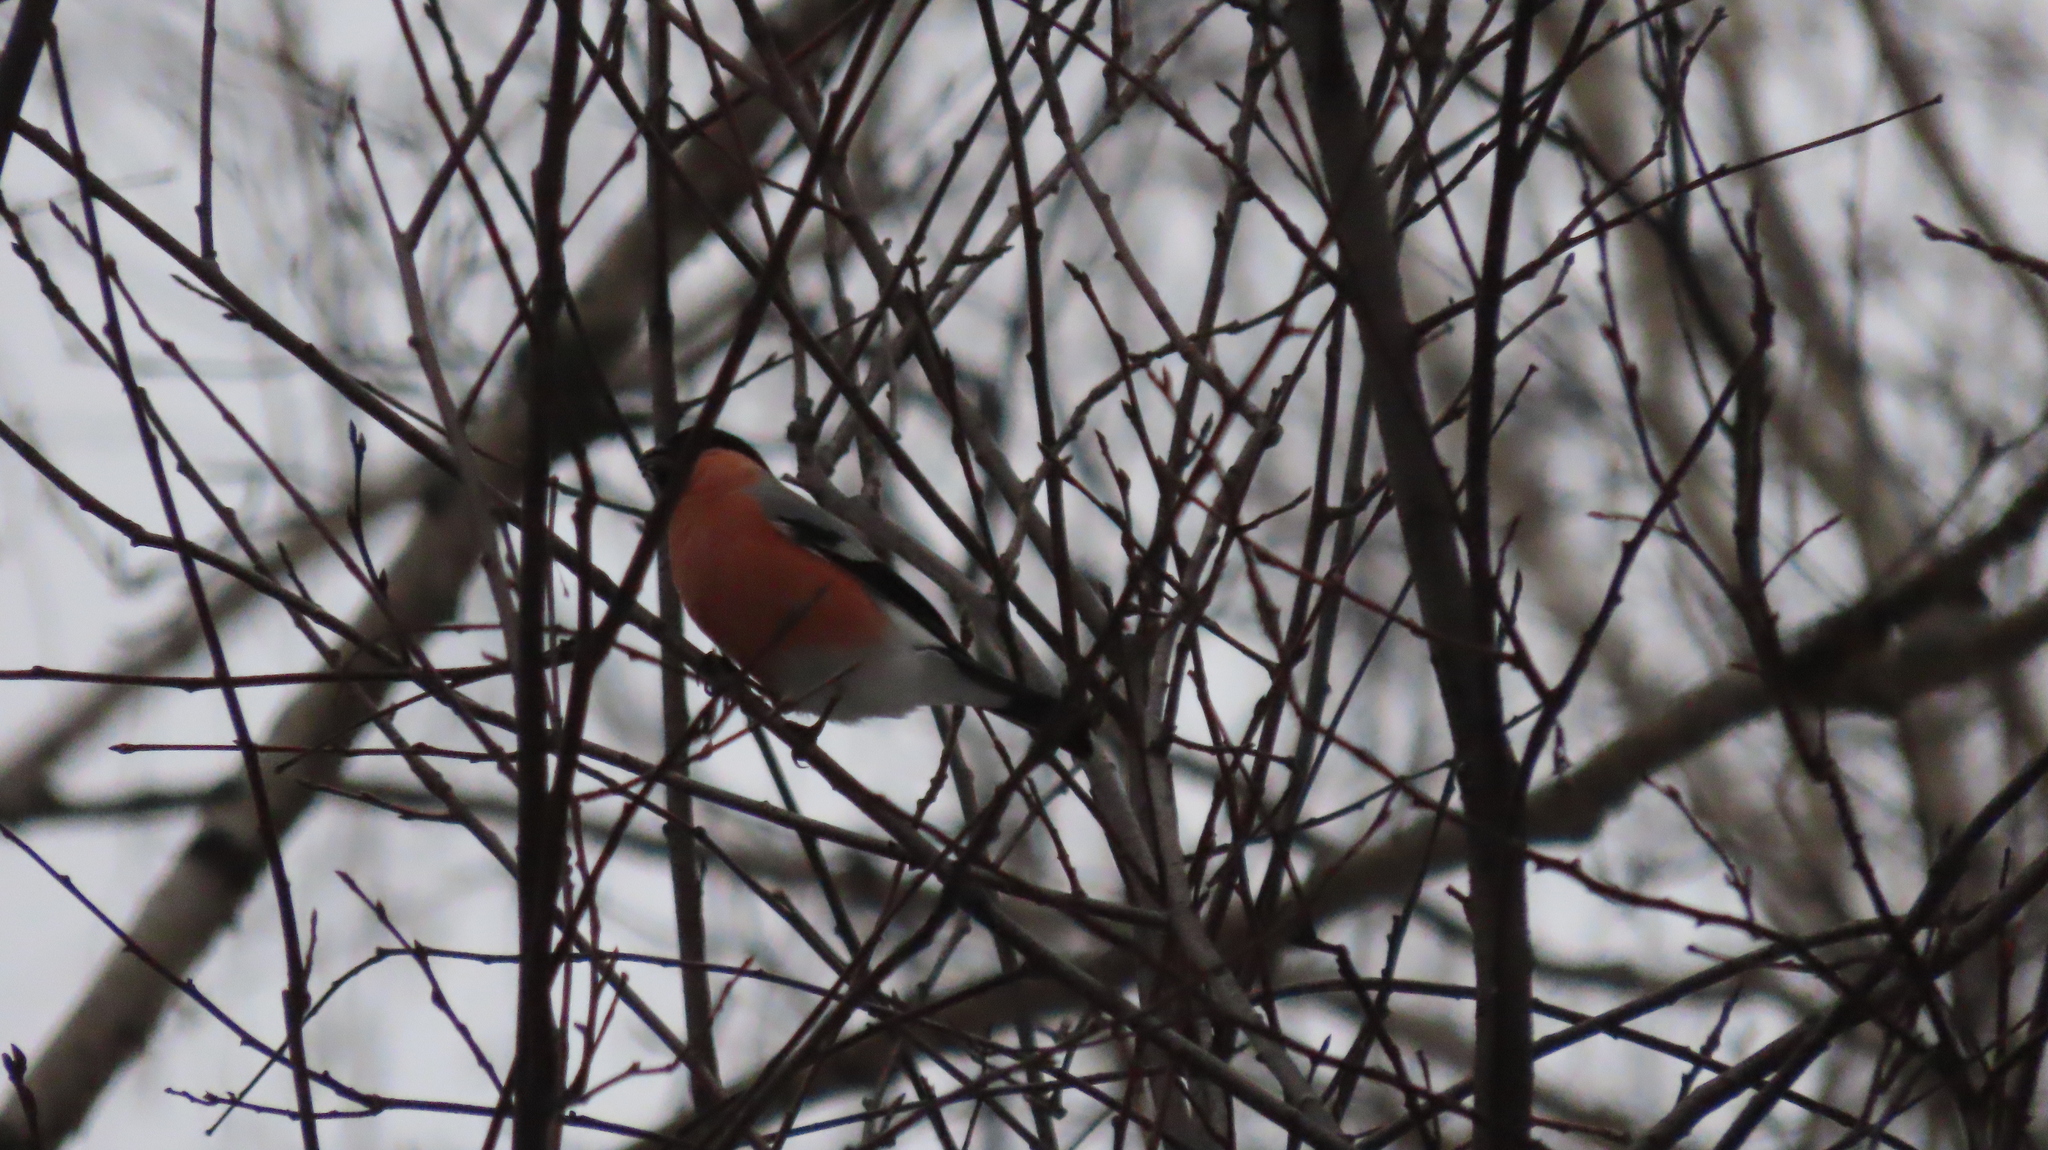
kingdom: Animalia
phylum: Chordata
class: Aves
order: Passeriformes
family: Fringillidae
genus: Pyrrhula
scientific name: Pyrrhula pyrrhula
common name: Eurasian bullfinch
